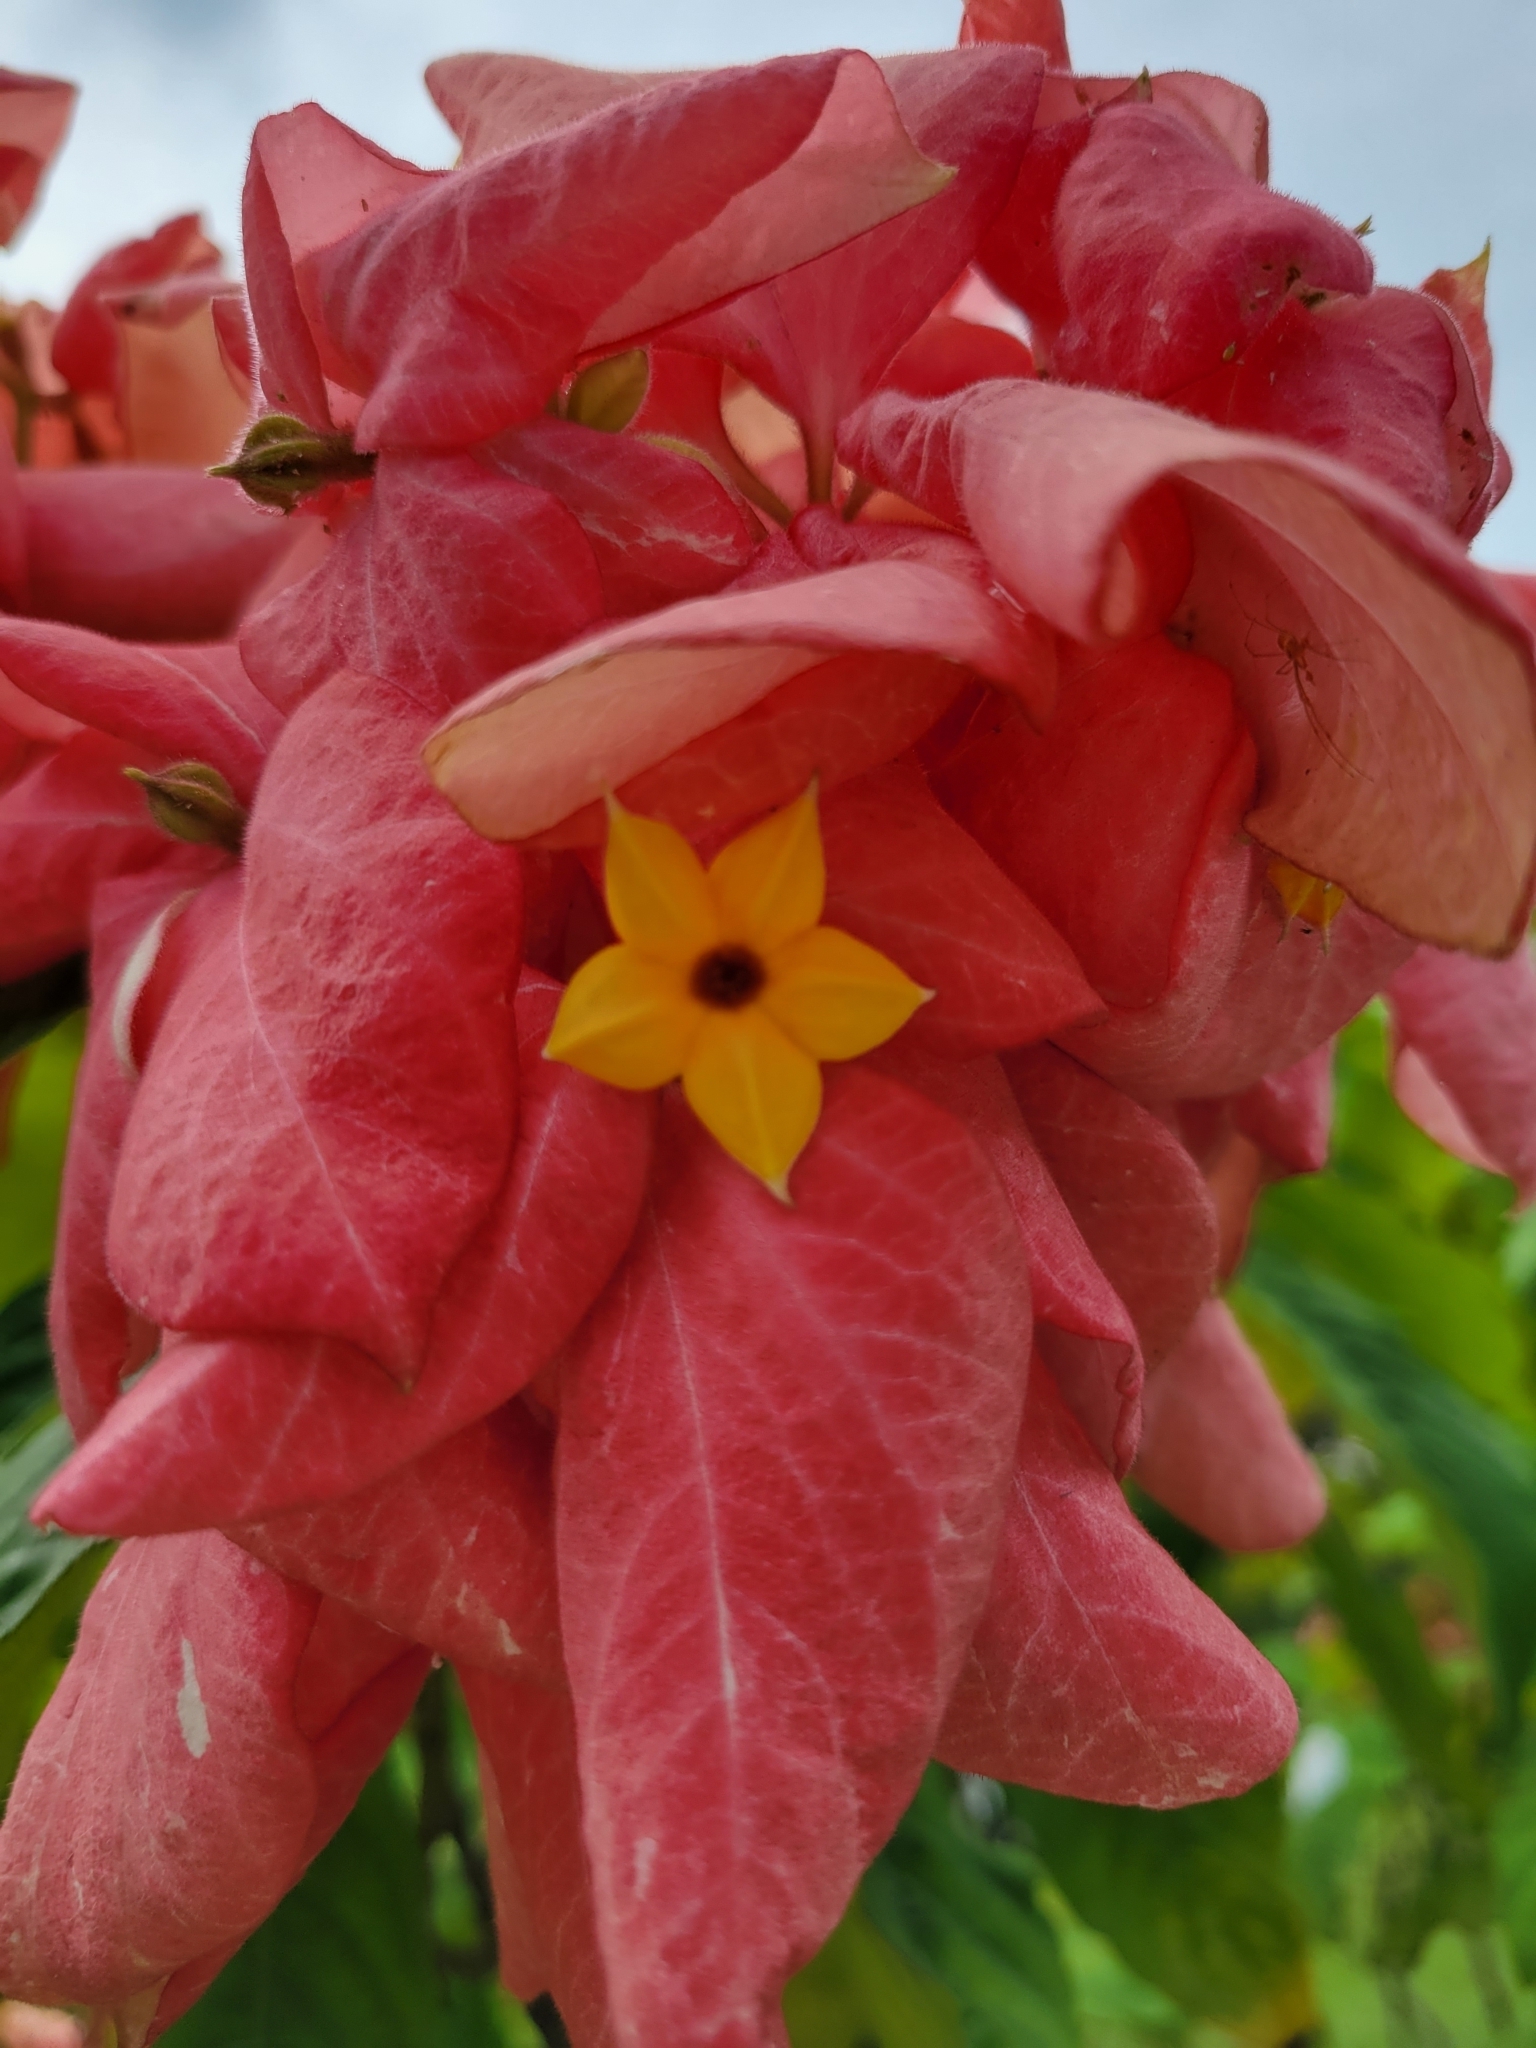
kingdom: Plantae
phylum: Tracheophyta
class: Magnoliopsida
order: Gentianales
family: Rubiaceae
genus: Mussaenda
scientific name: Mussaenda philippica
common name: Philippine mussaenda
